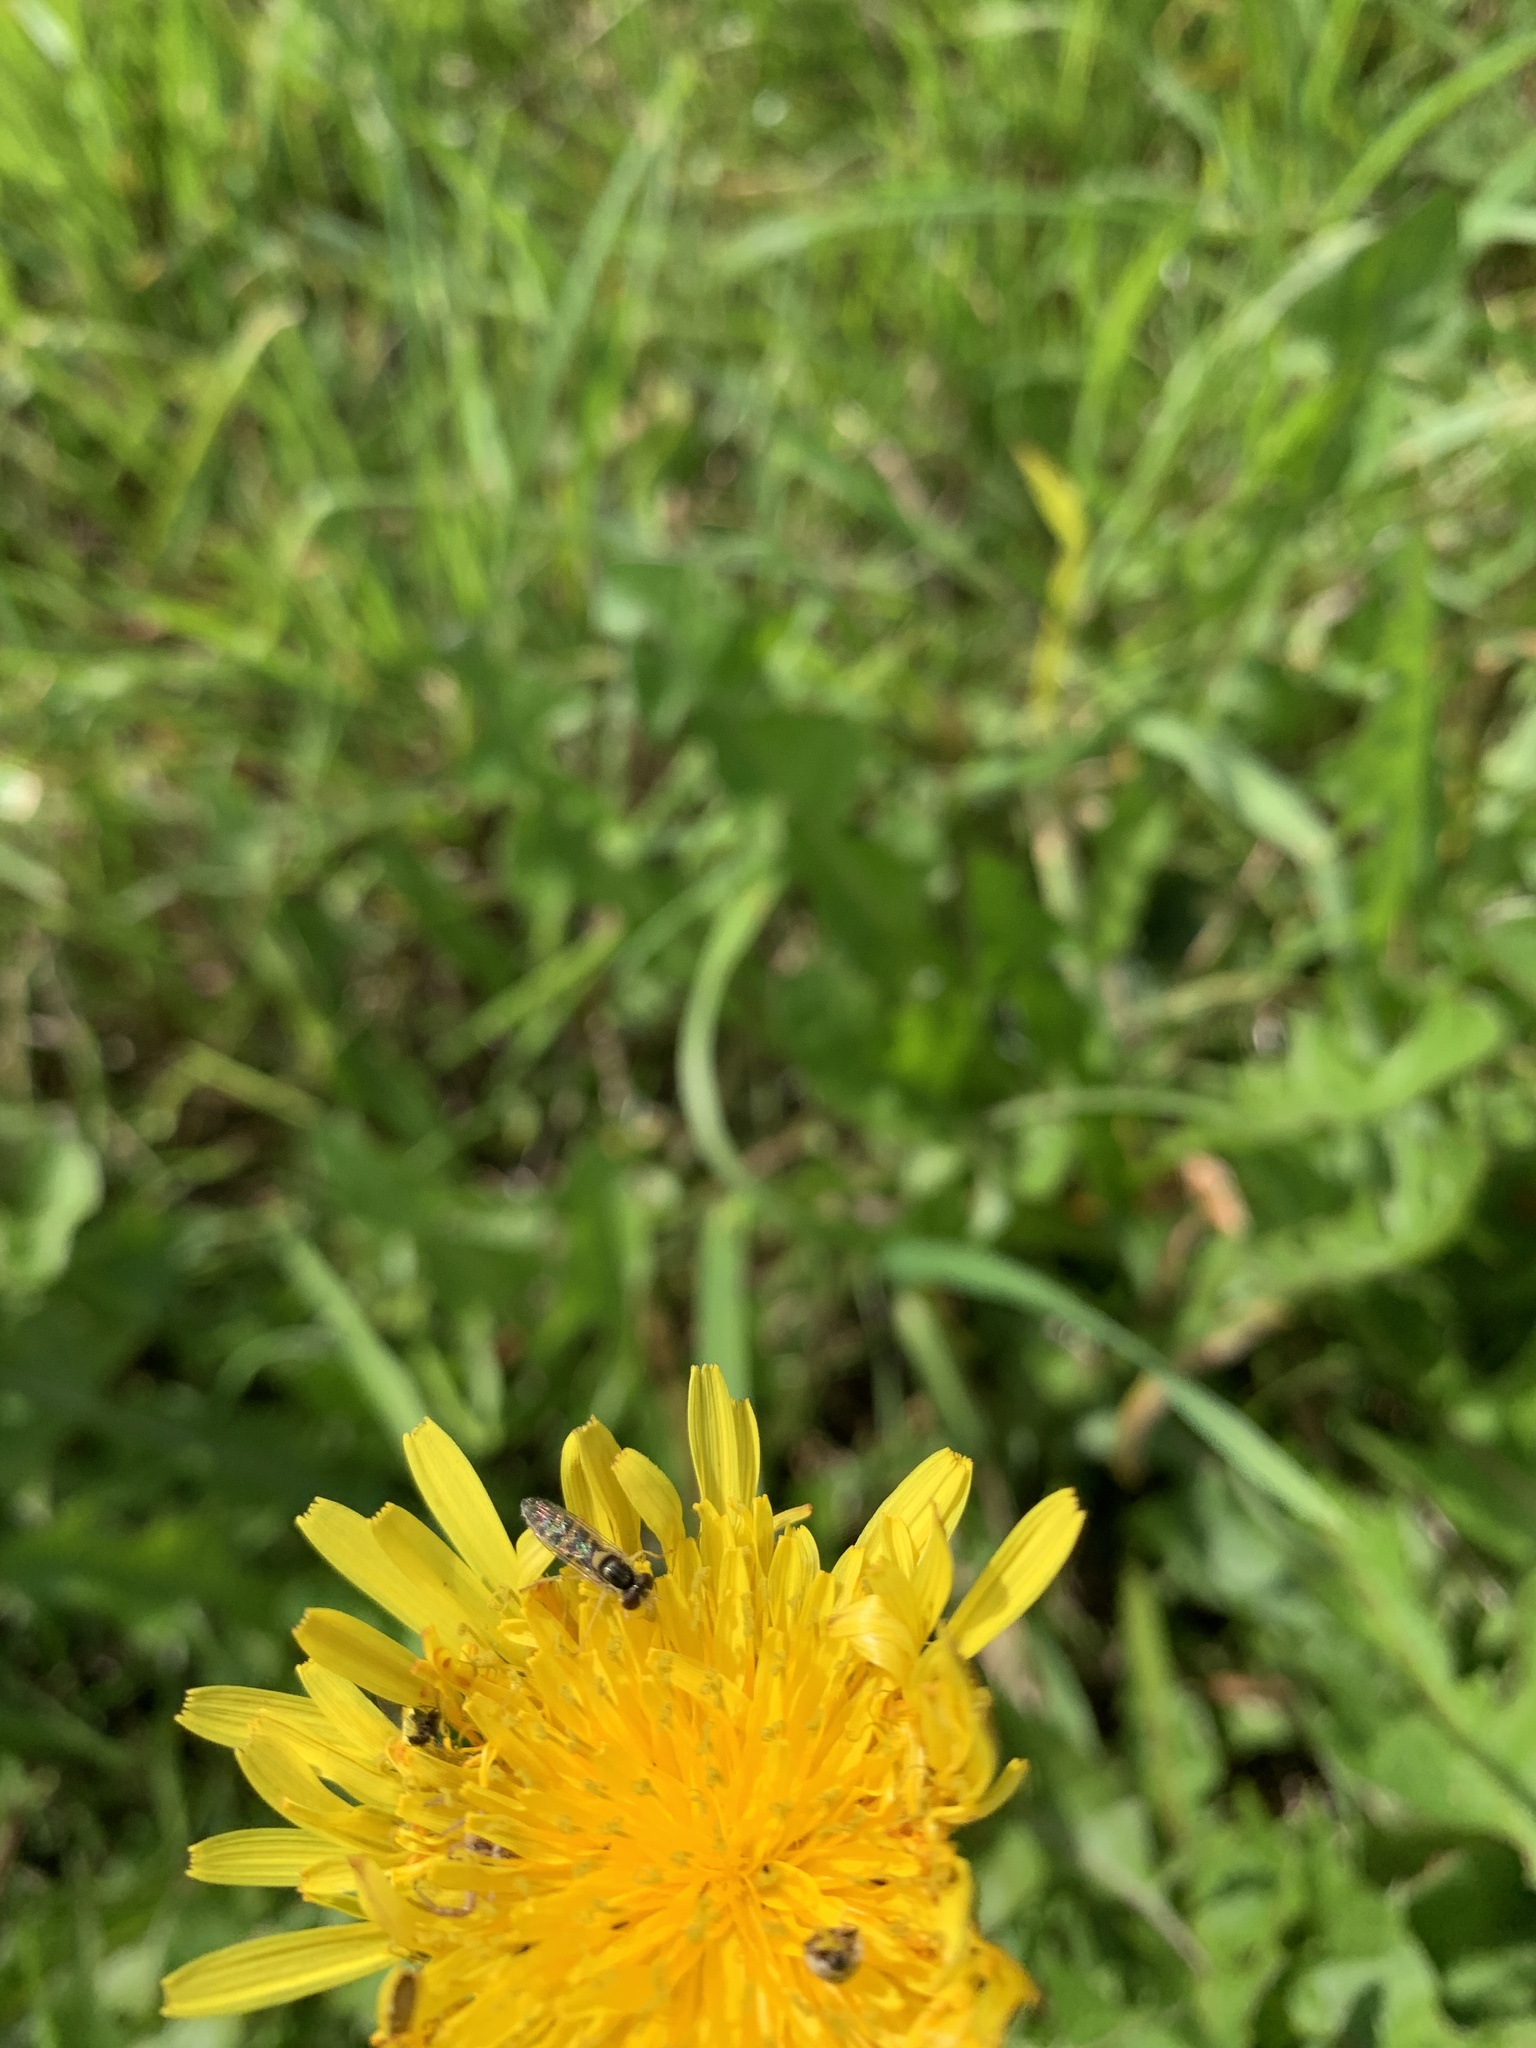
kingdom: Plantae
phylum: Tracheophyta
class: Magnoliopsida
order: Asterales
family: Asteraceae
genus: Taraxacum
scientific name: Taraxacum officinale
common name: Common dandelion
